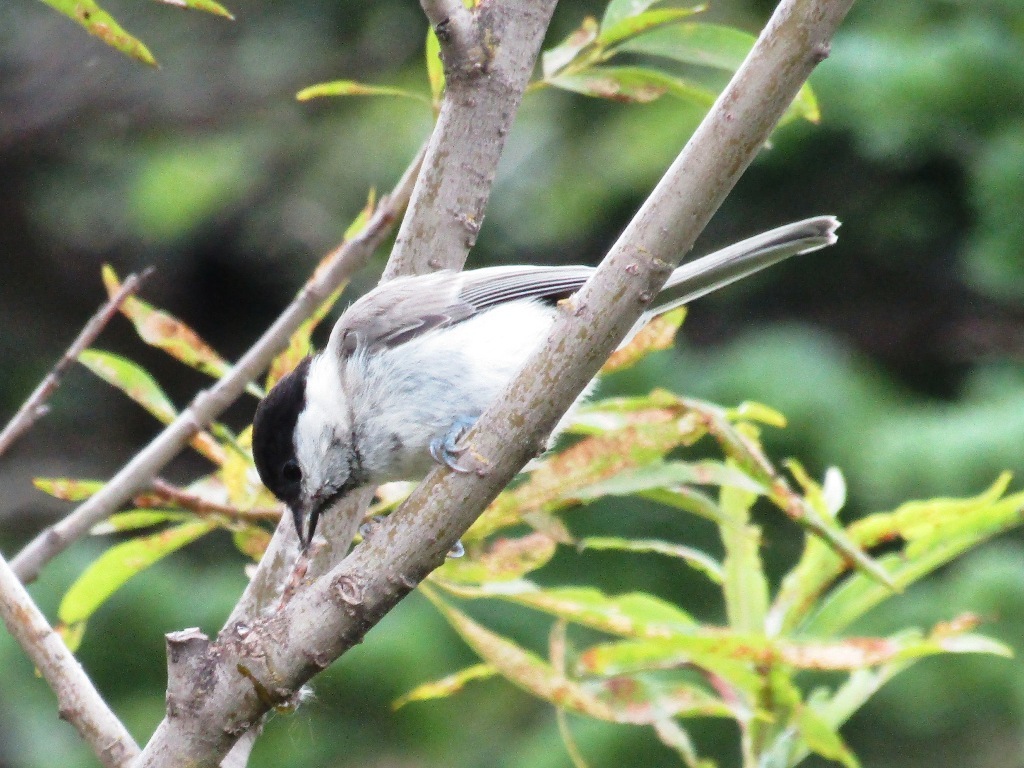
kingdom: Animalia
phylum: Chordata
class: Aves
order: Passeriformes
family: Paridae
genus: Poecile
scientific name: Poecile palustris
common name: Marsh tit
